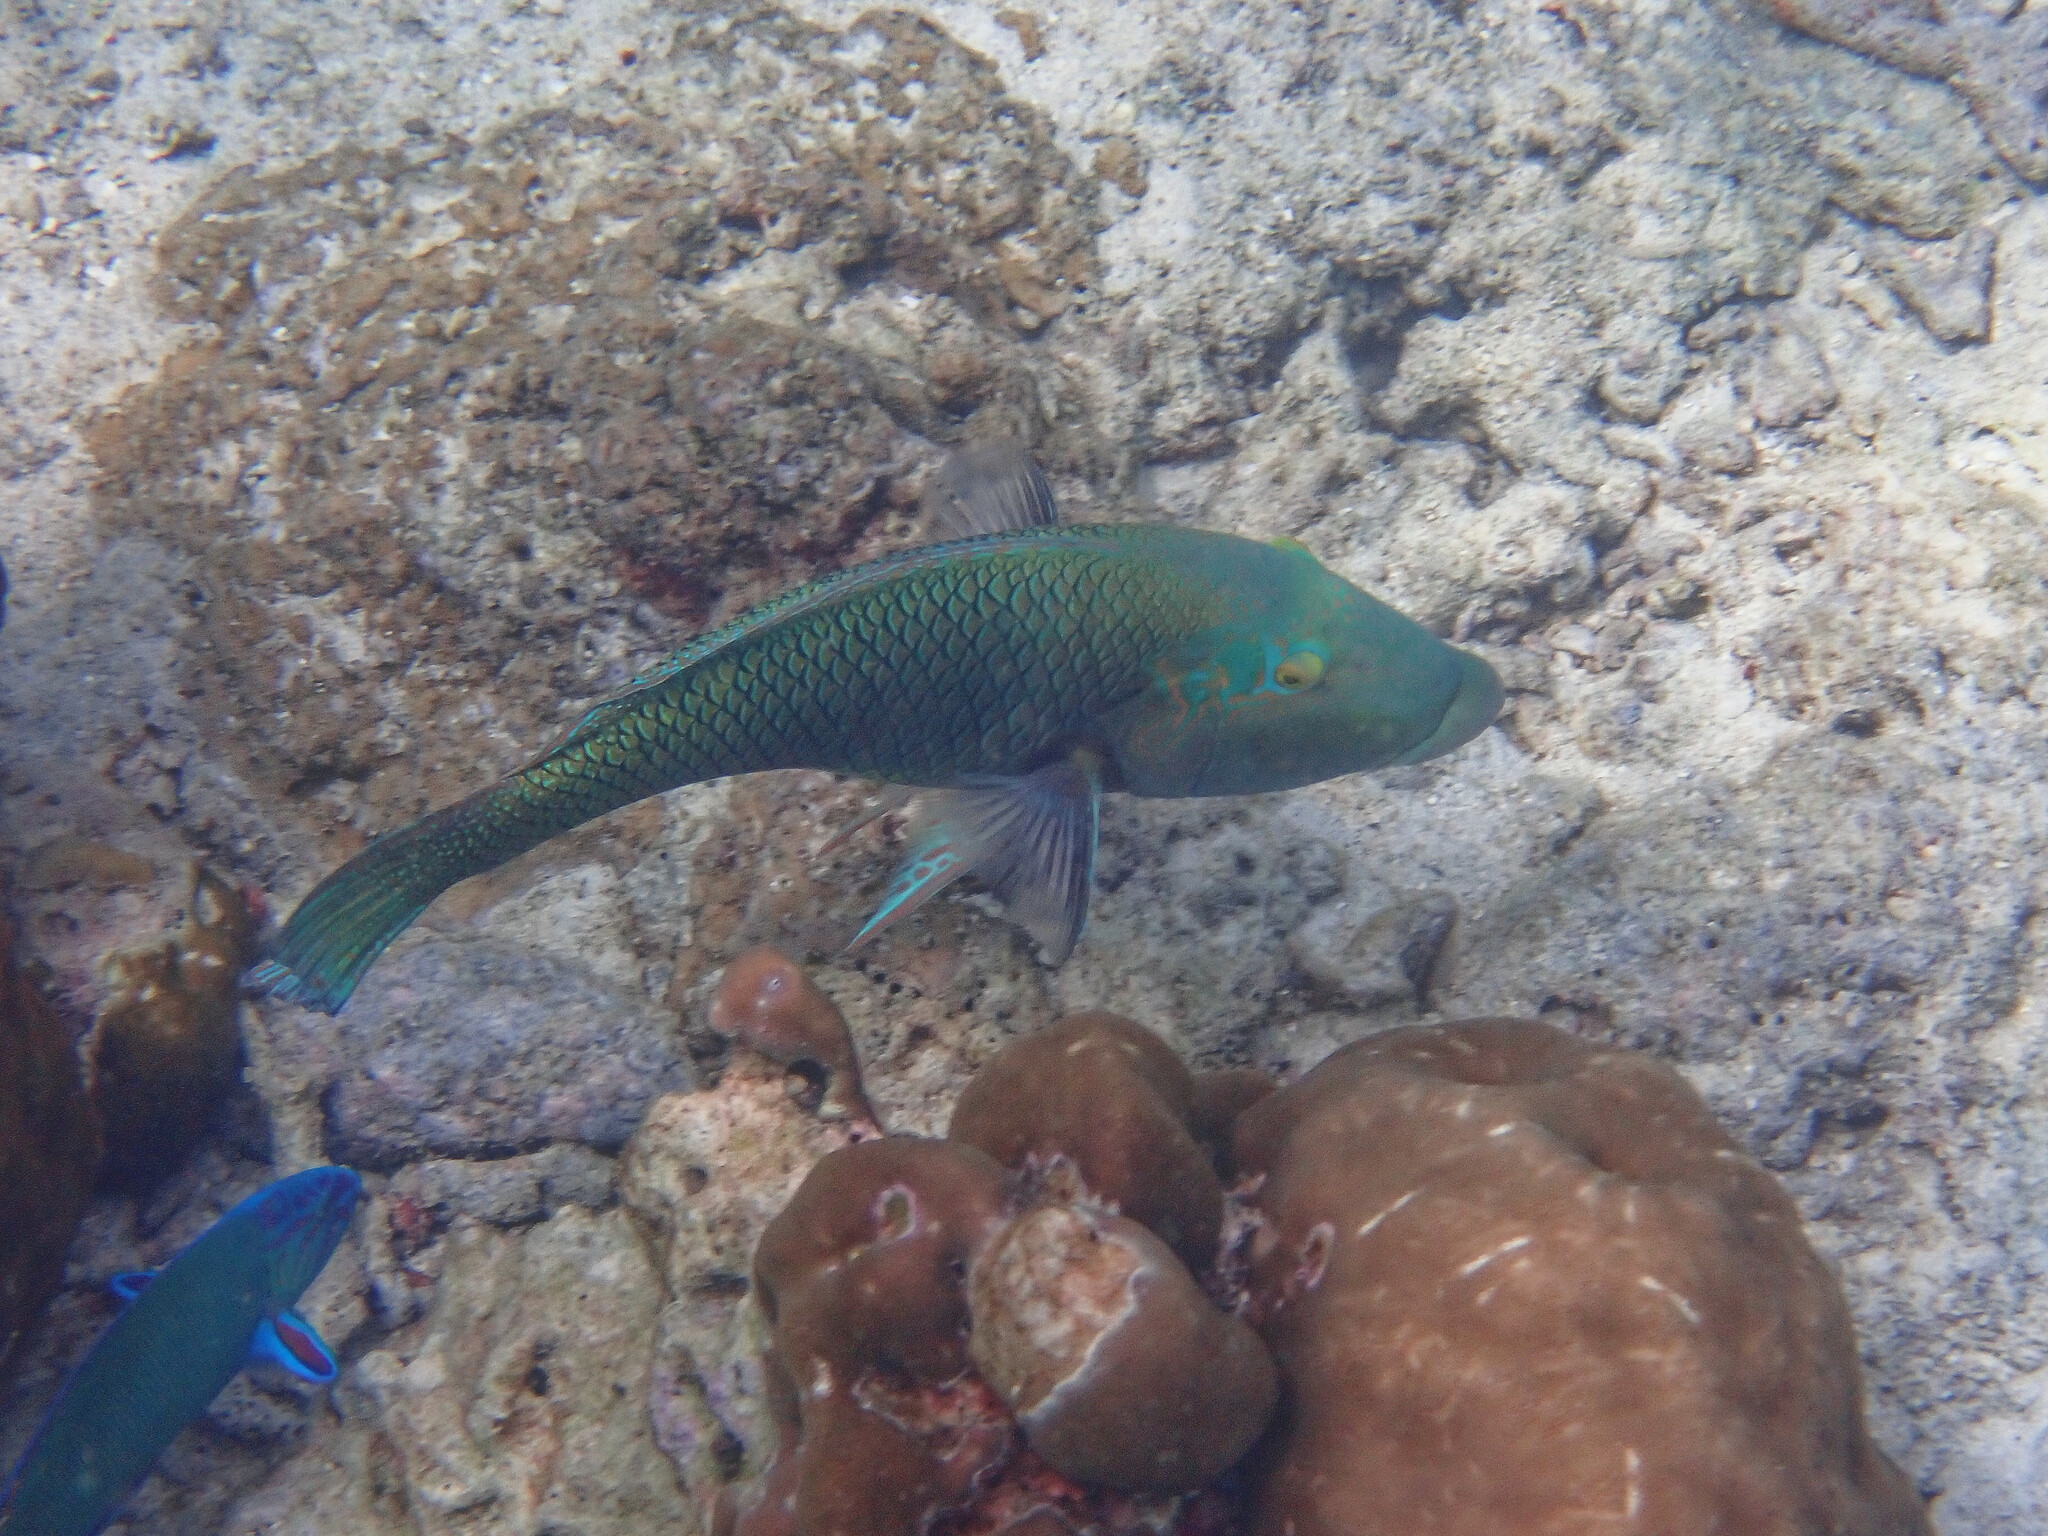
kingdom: Animalia
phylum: Chordata
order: Perciformes
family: Labridae
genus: Hemigymnus
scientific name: Hemigymnus melapterus
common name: Blackeye thicklip
